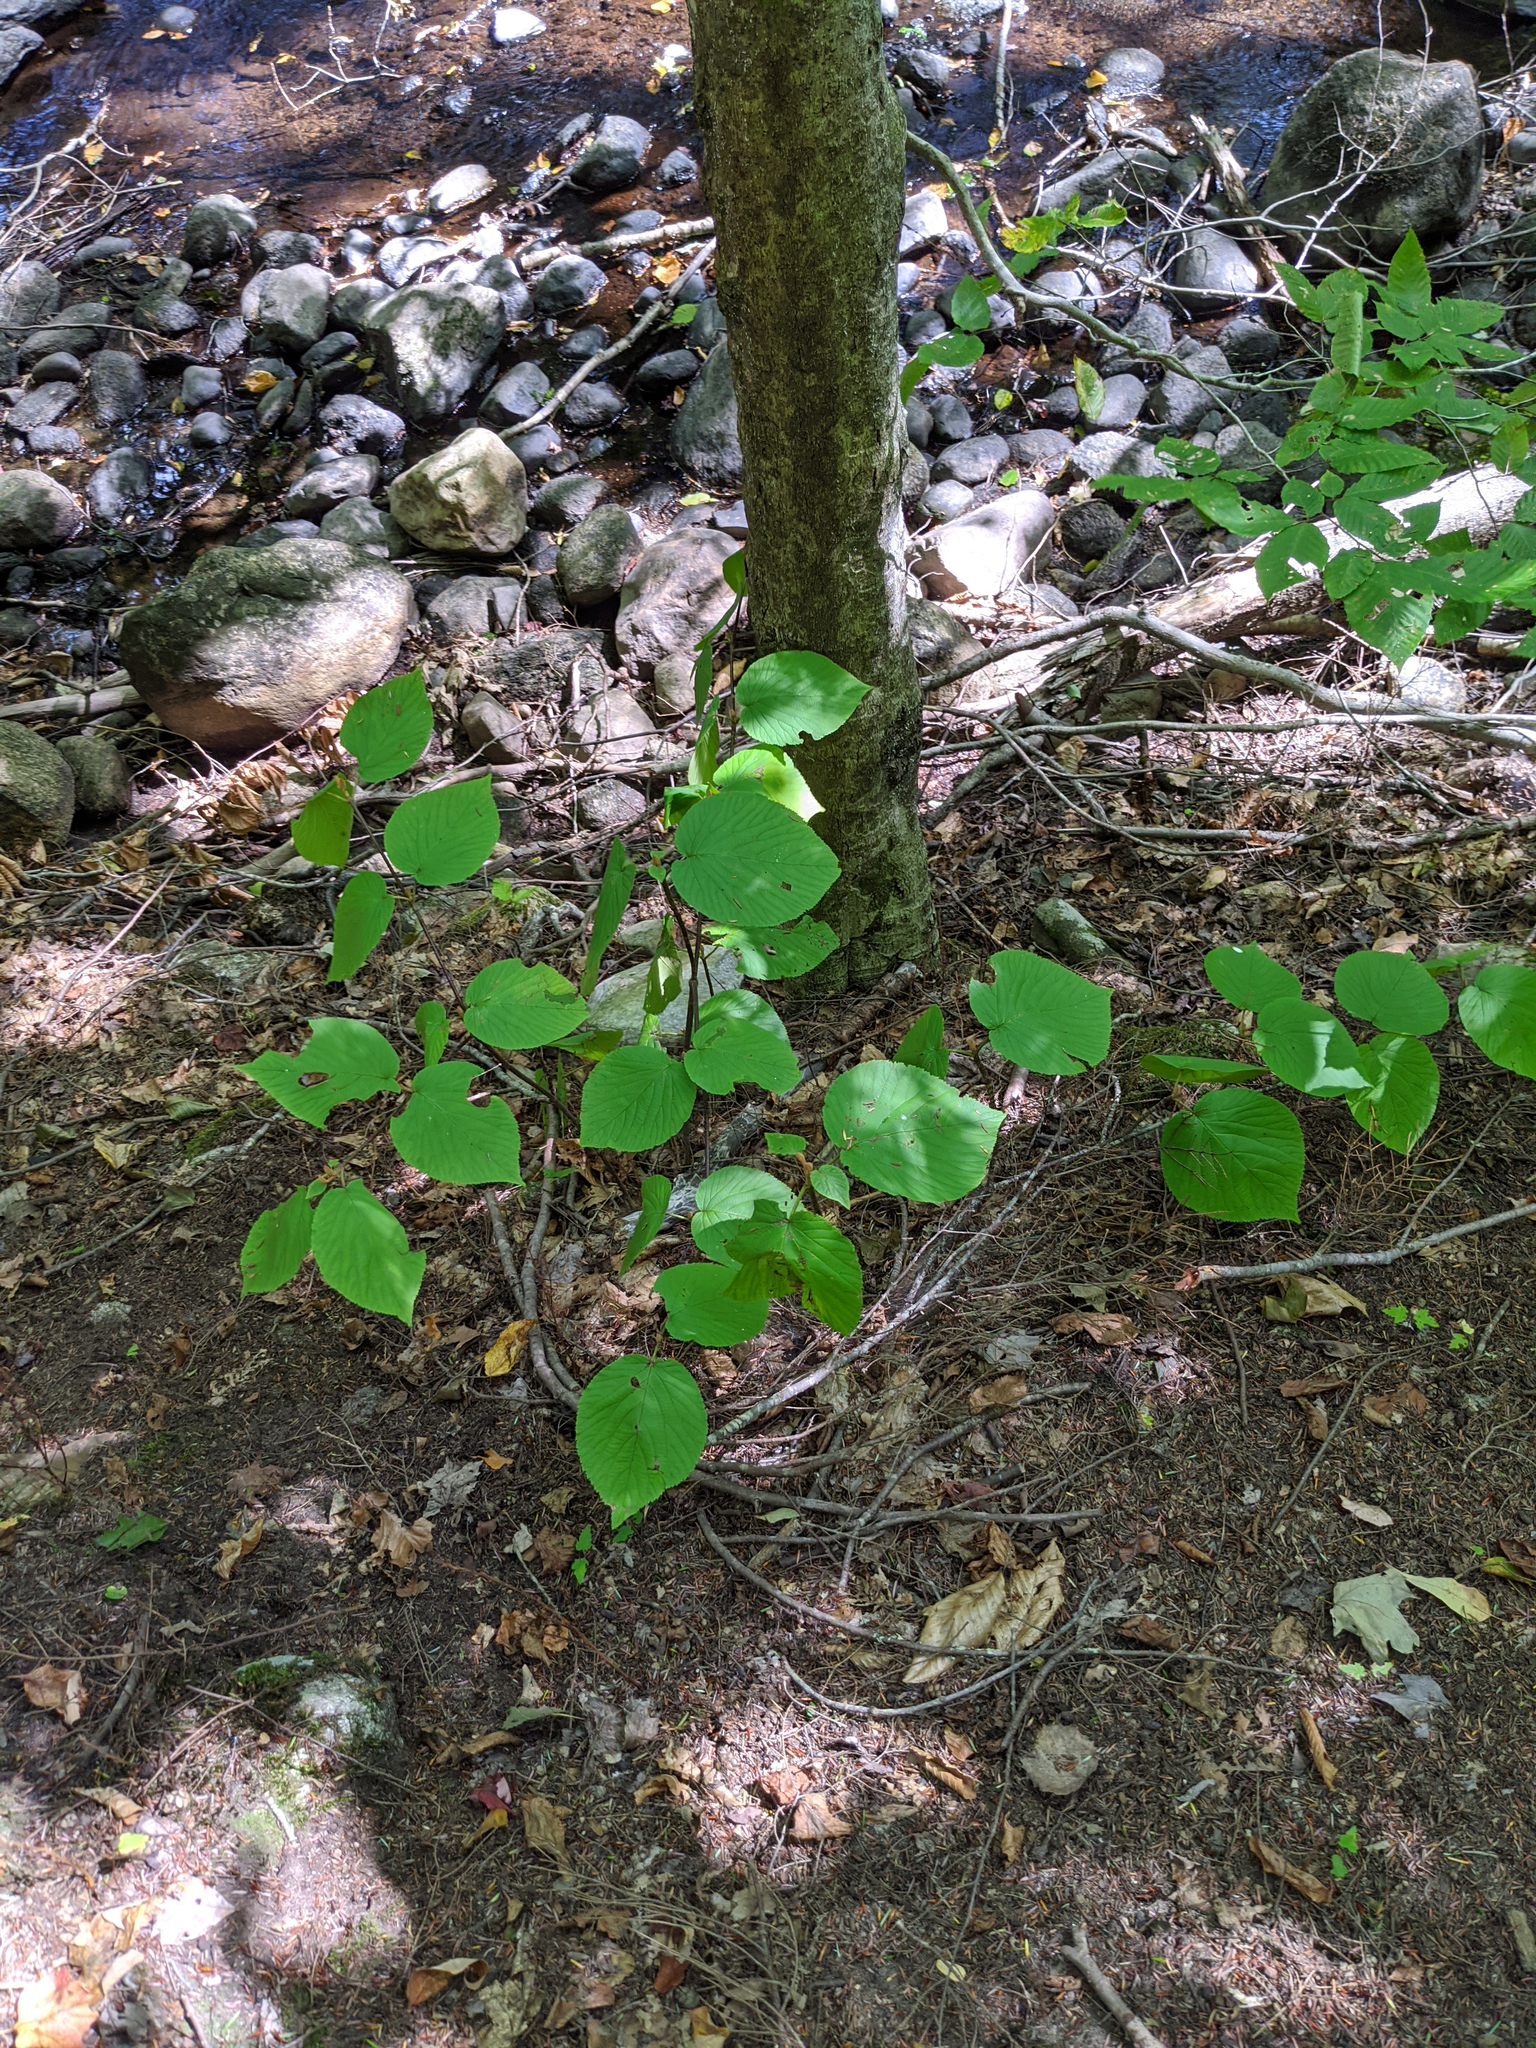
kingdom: Plantae
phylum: Tracheophyta
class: Magnoliopsida
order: Dipsacales
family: Viburnaceae
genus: Viburnum
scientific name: Viburnum lantanoides
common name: Hobblebush
